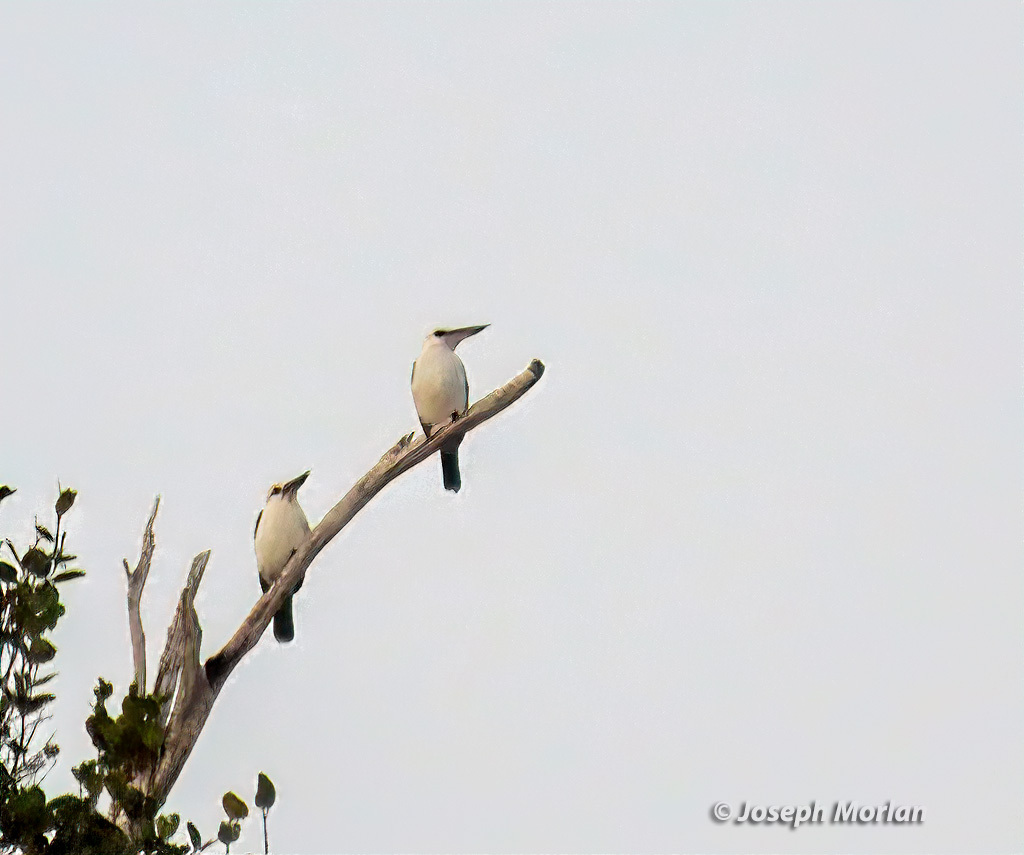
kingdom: Animalia
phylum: Chordata
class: Aves
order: Coraciiformes
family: Alcedinidae
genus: Todiramphus
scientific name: Todiramphus saurophagus
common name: Beach kingfisher
